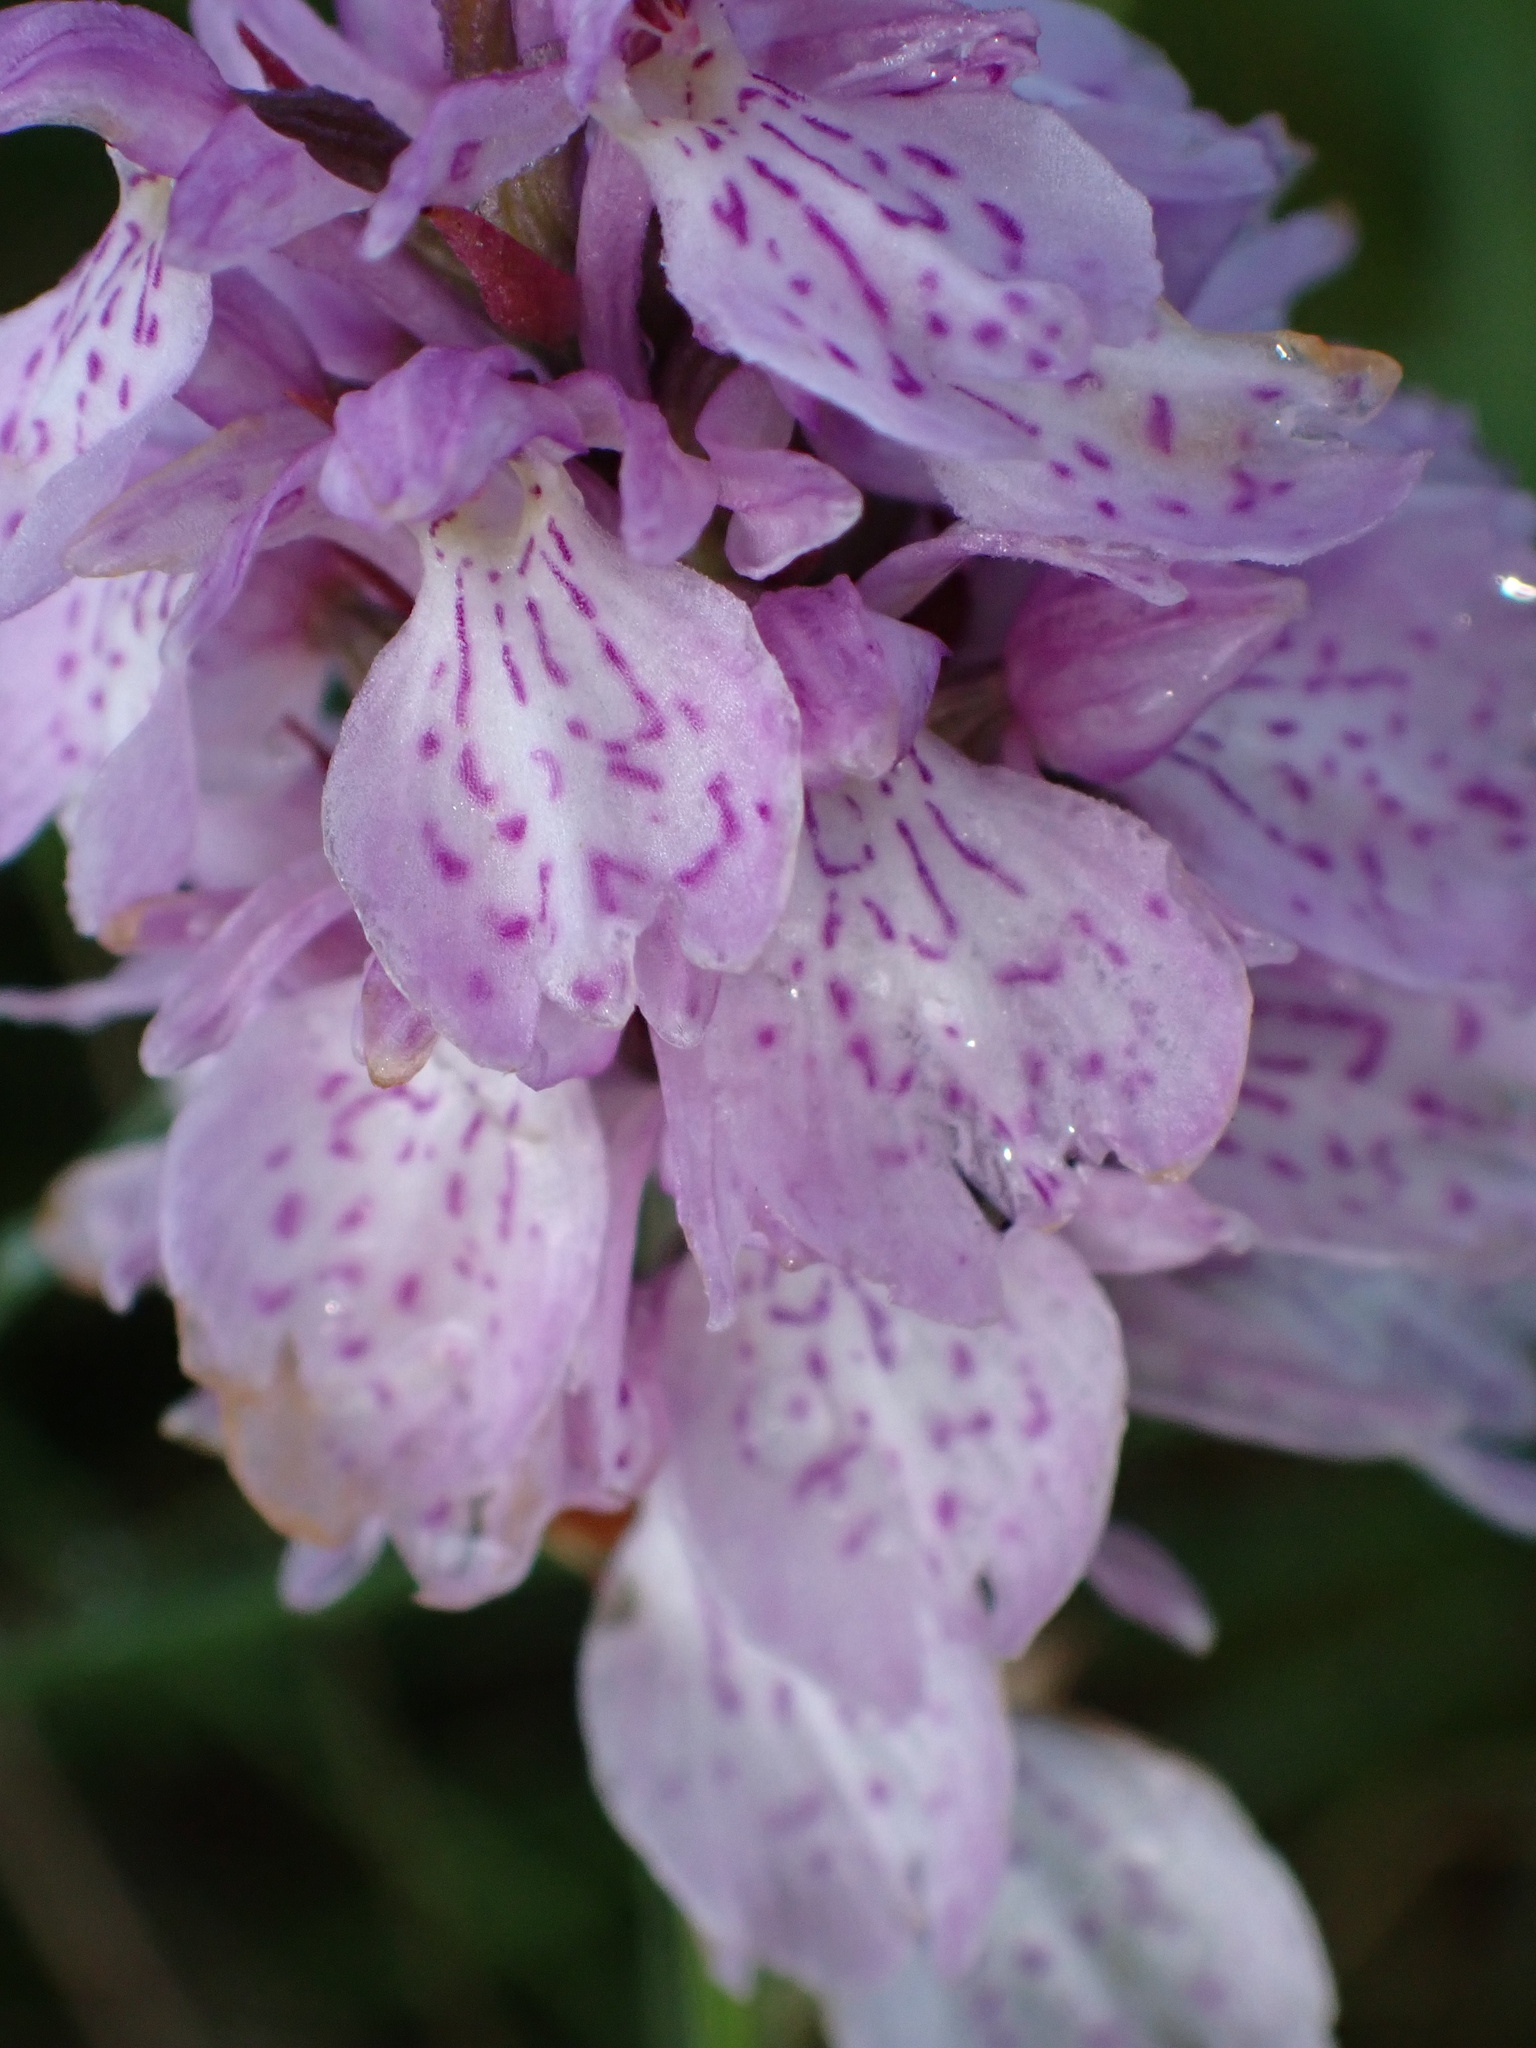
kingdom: Plantae
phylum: Tracheophyta
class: Liliopsida
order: Asparagales
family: Orchidaceae
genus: Dactylorhiza
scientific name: Dactylorhiza maculata
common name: Heath spotted-orchid
